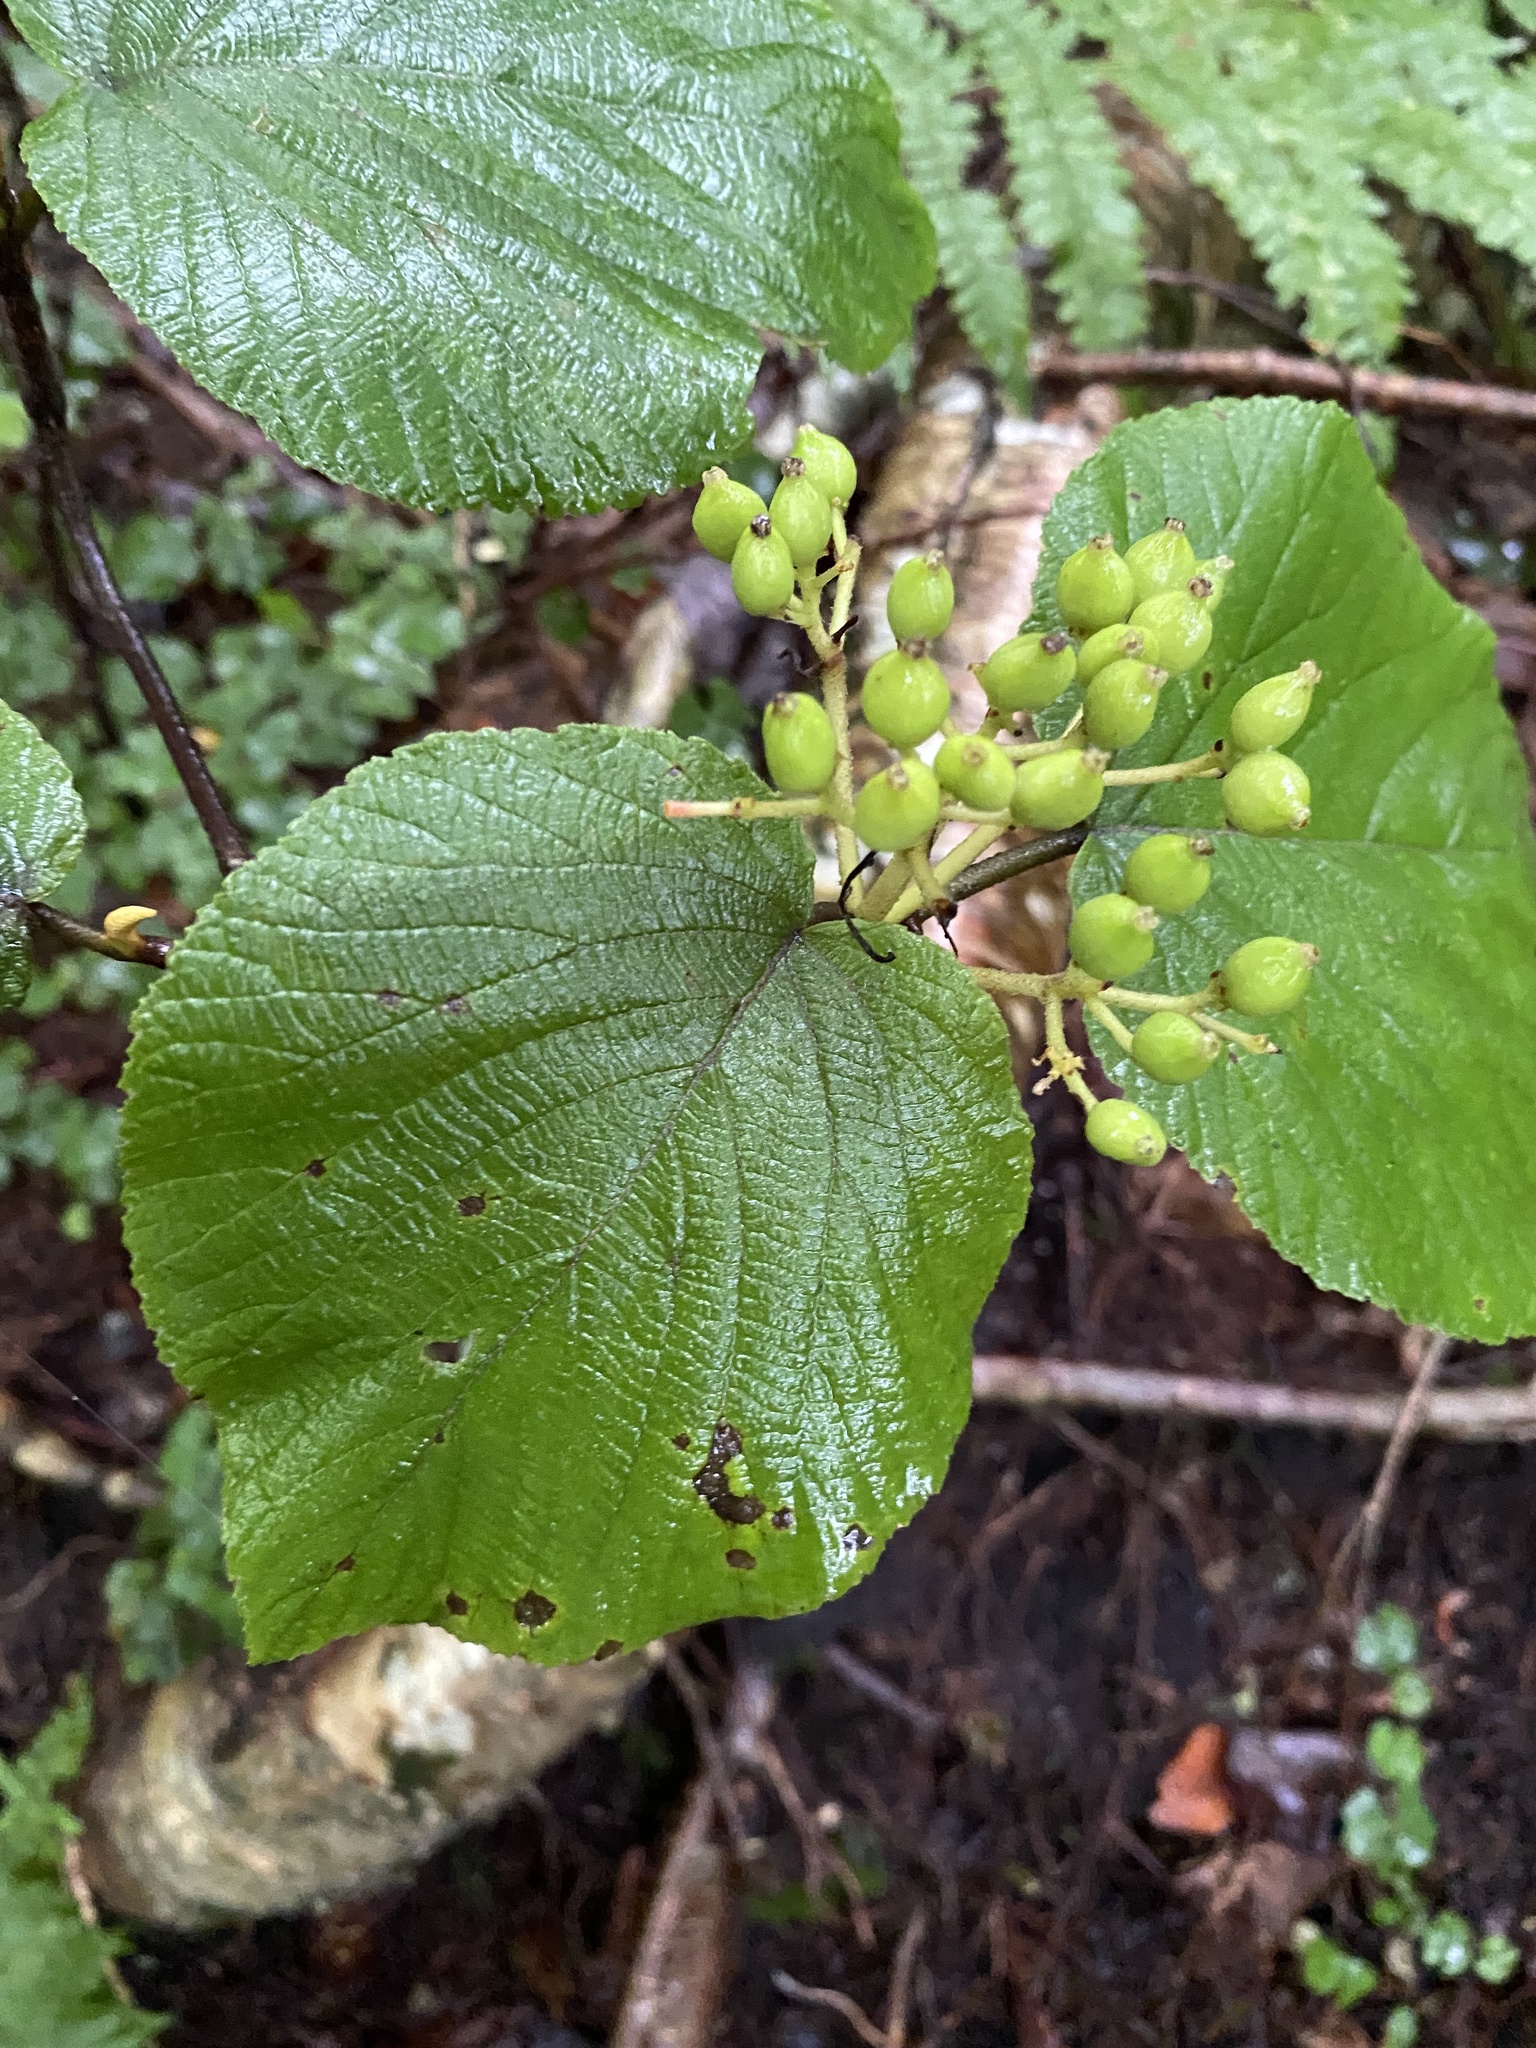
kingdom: Plantae
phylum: Tracheophyta
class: Magnoliopsida
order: Dipsacales
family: Viburnaceae
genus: Viburnum
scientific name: Viburnum lantanoides
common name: Hobblebush
